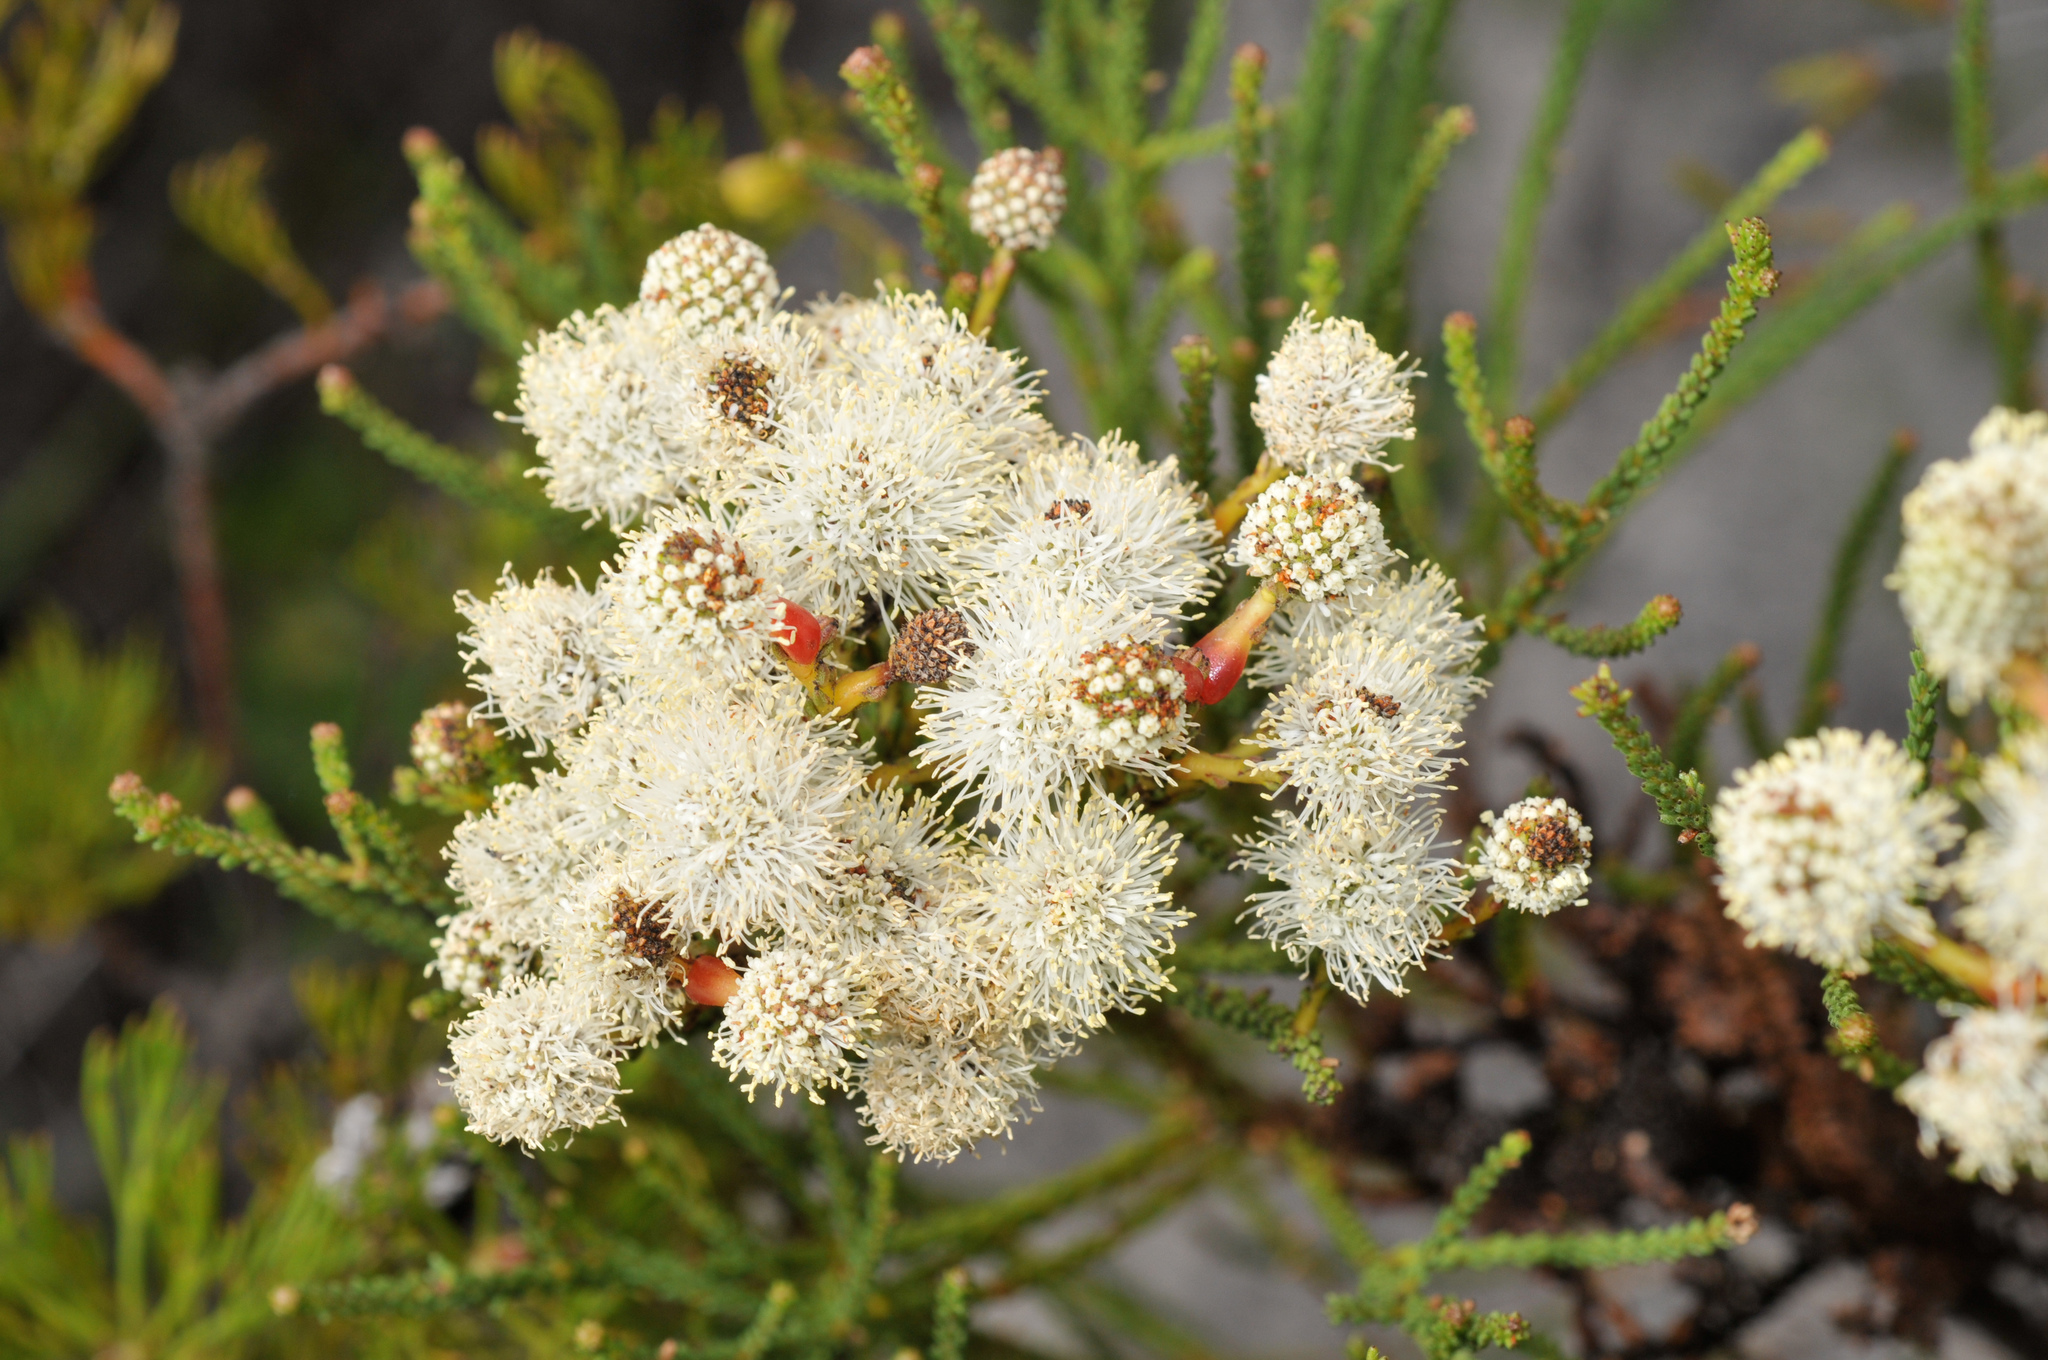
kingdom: Plantae
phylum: Tracheophyta
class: Magnoliopsida
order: Bruniales
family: Bruniaceae
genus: Berzelia
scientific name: Berzelia abrotanoides
